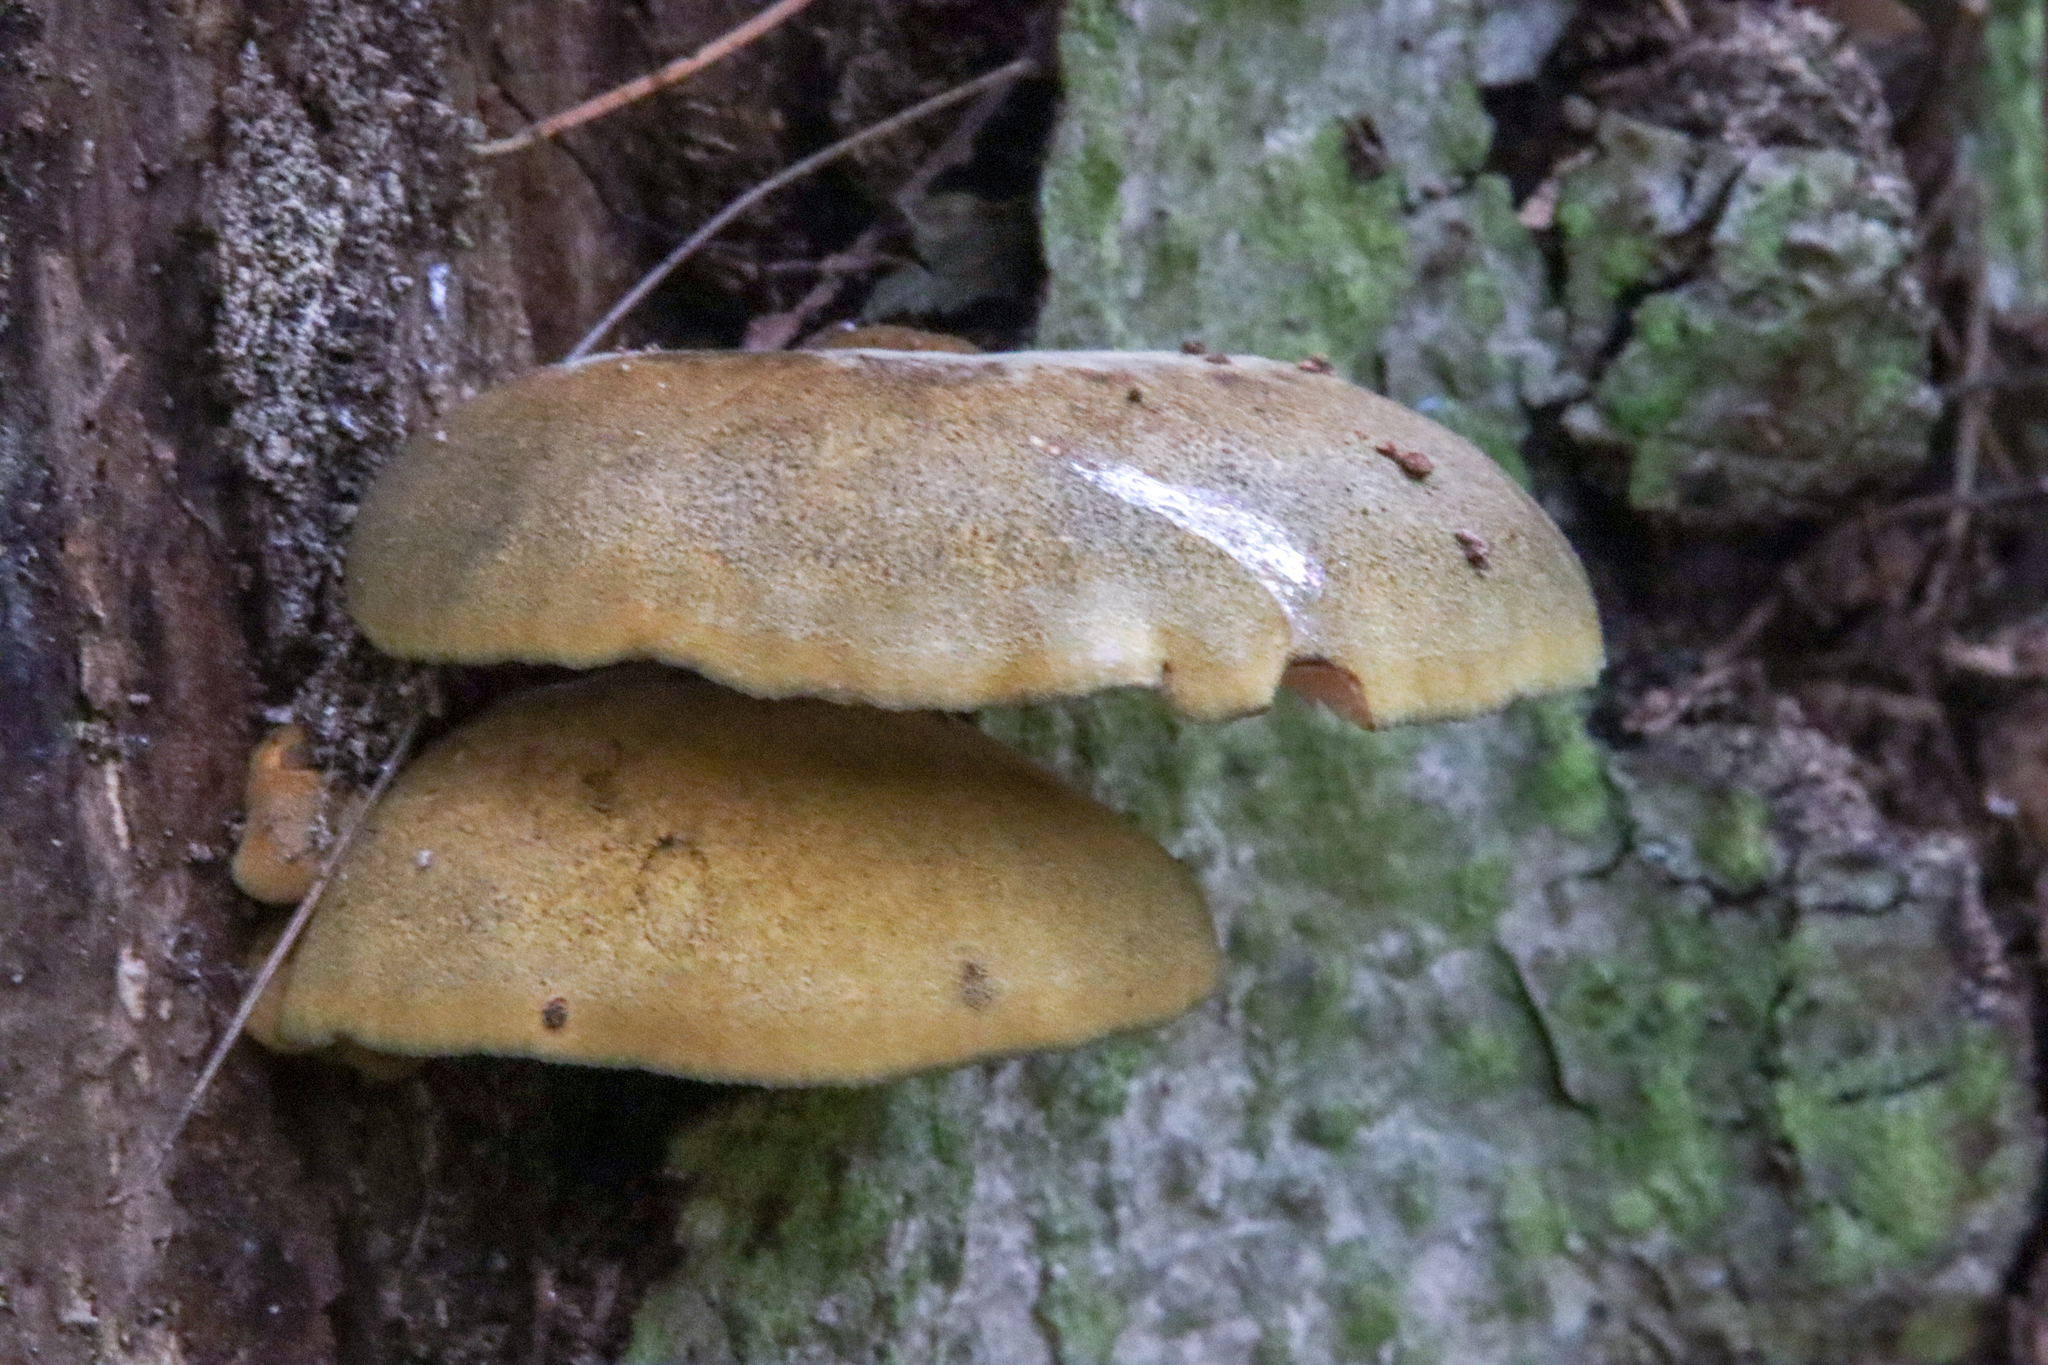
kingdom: Fungi
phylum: Basidiomycota
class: Agaricomycetes
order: Agaricales
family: Sarcomyxaceae
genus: Sarcomyxa
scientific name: Sarcomyxa serotina
